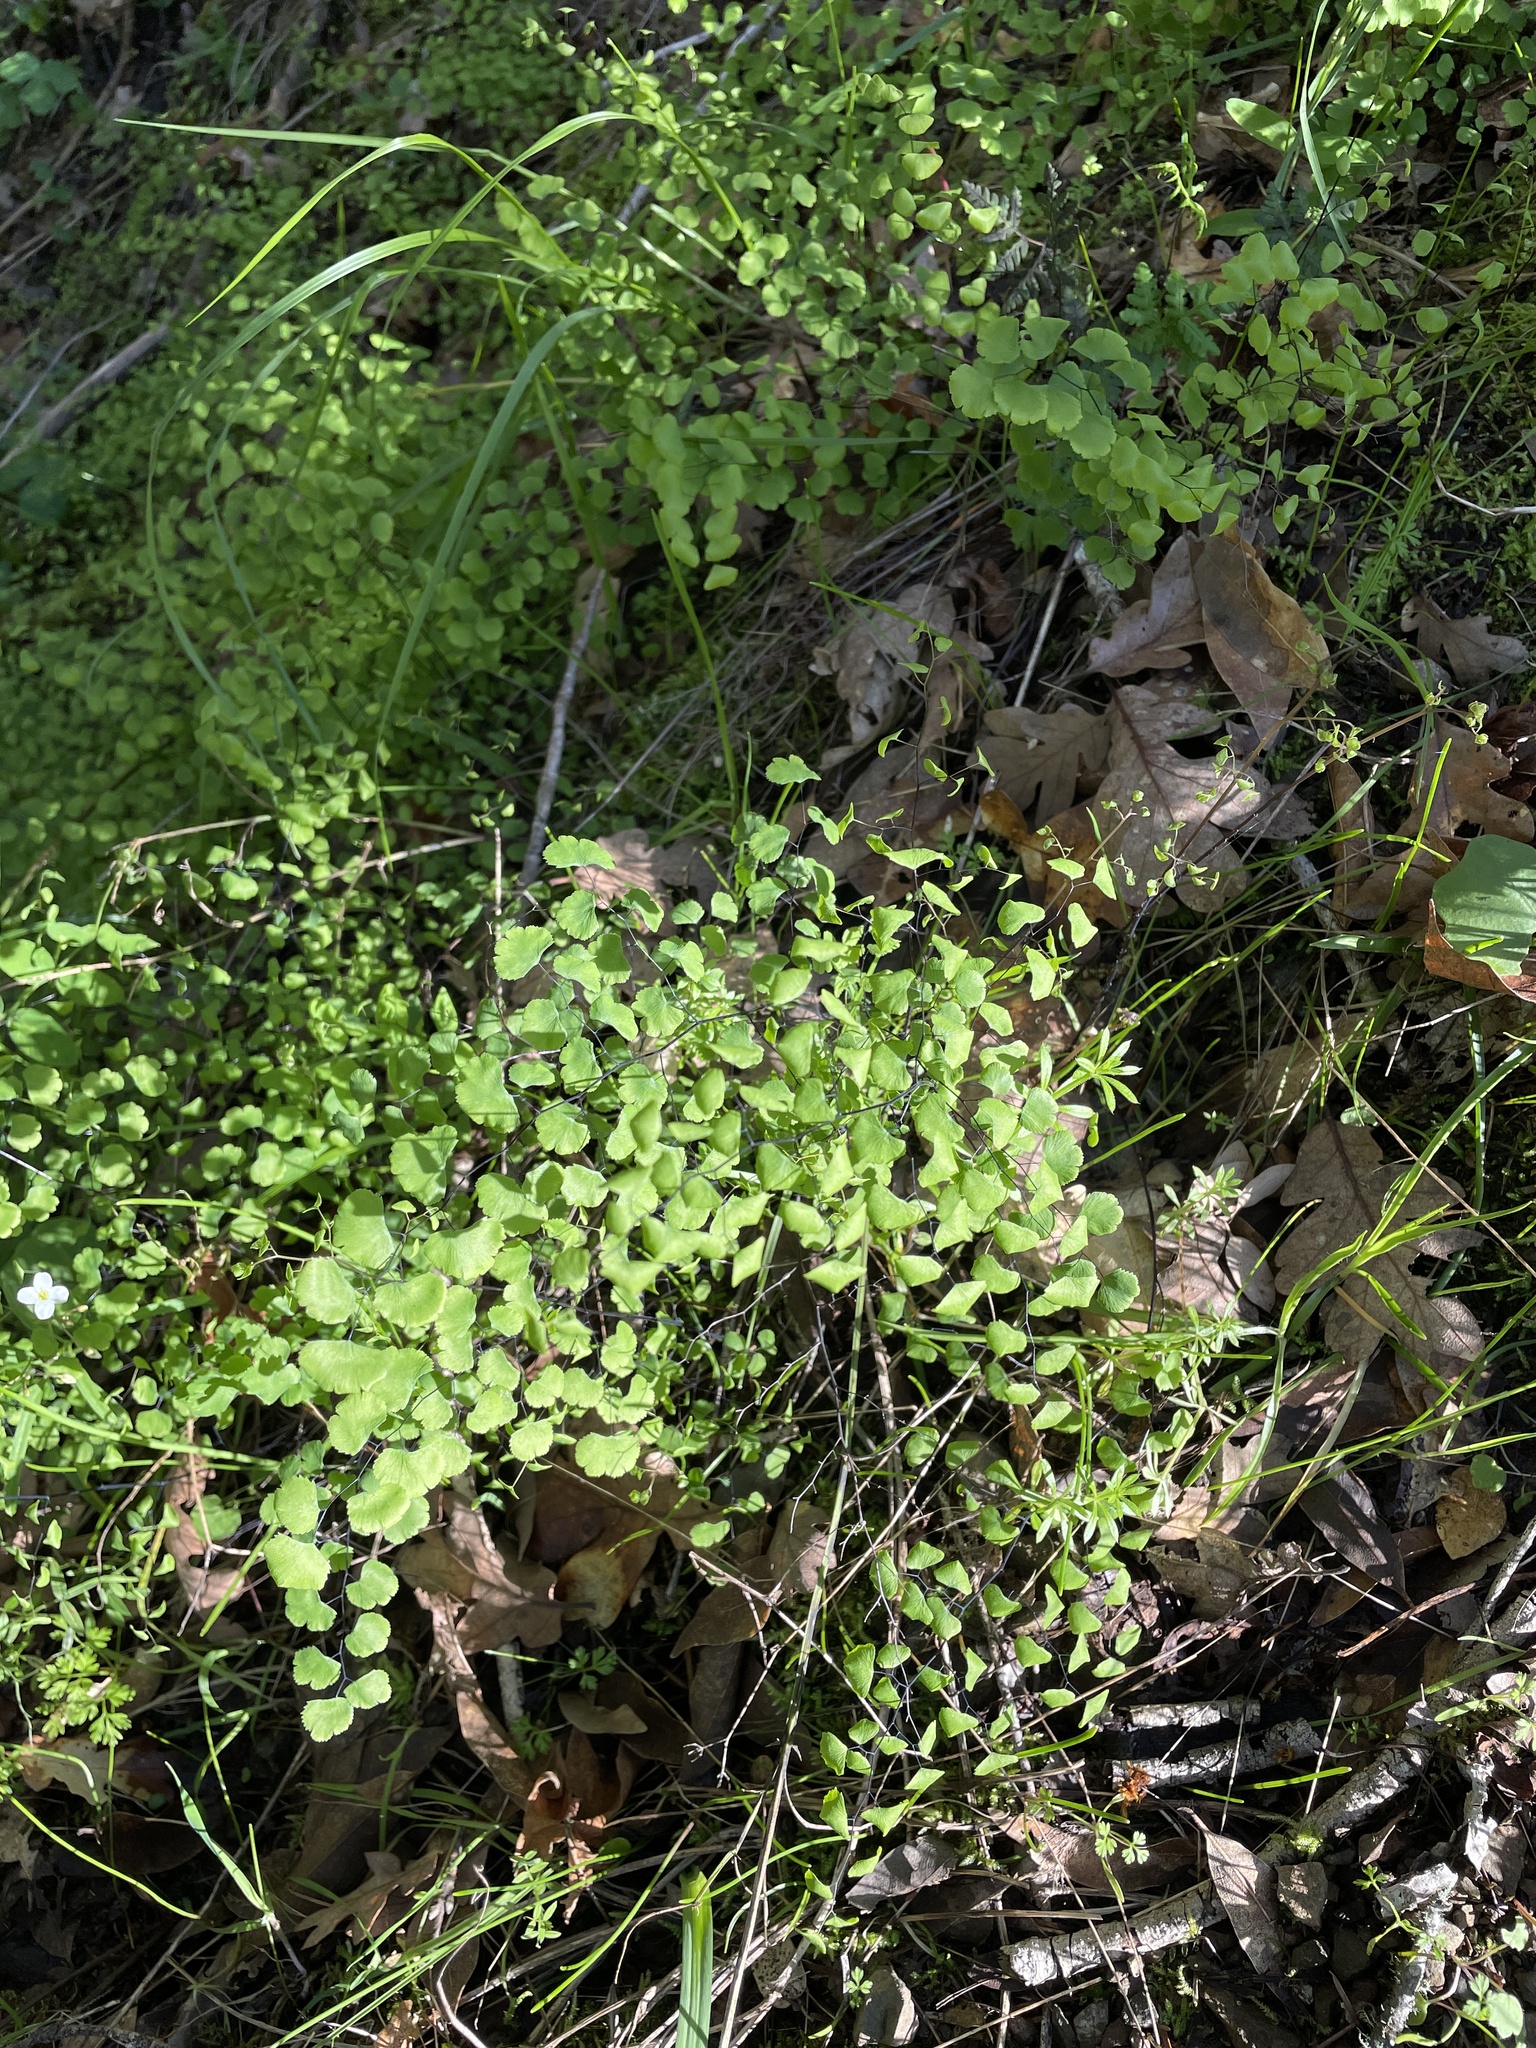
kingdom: Plantae
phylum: Tracheophyta
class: Polypodiopsida
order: Polypodiales
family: Pteridaceae
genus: Adiantum
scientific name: Adiantum jordanii
